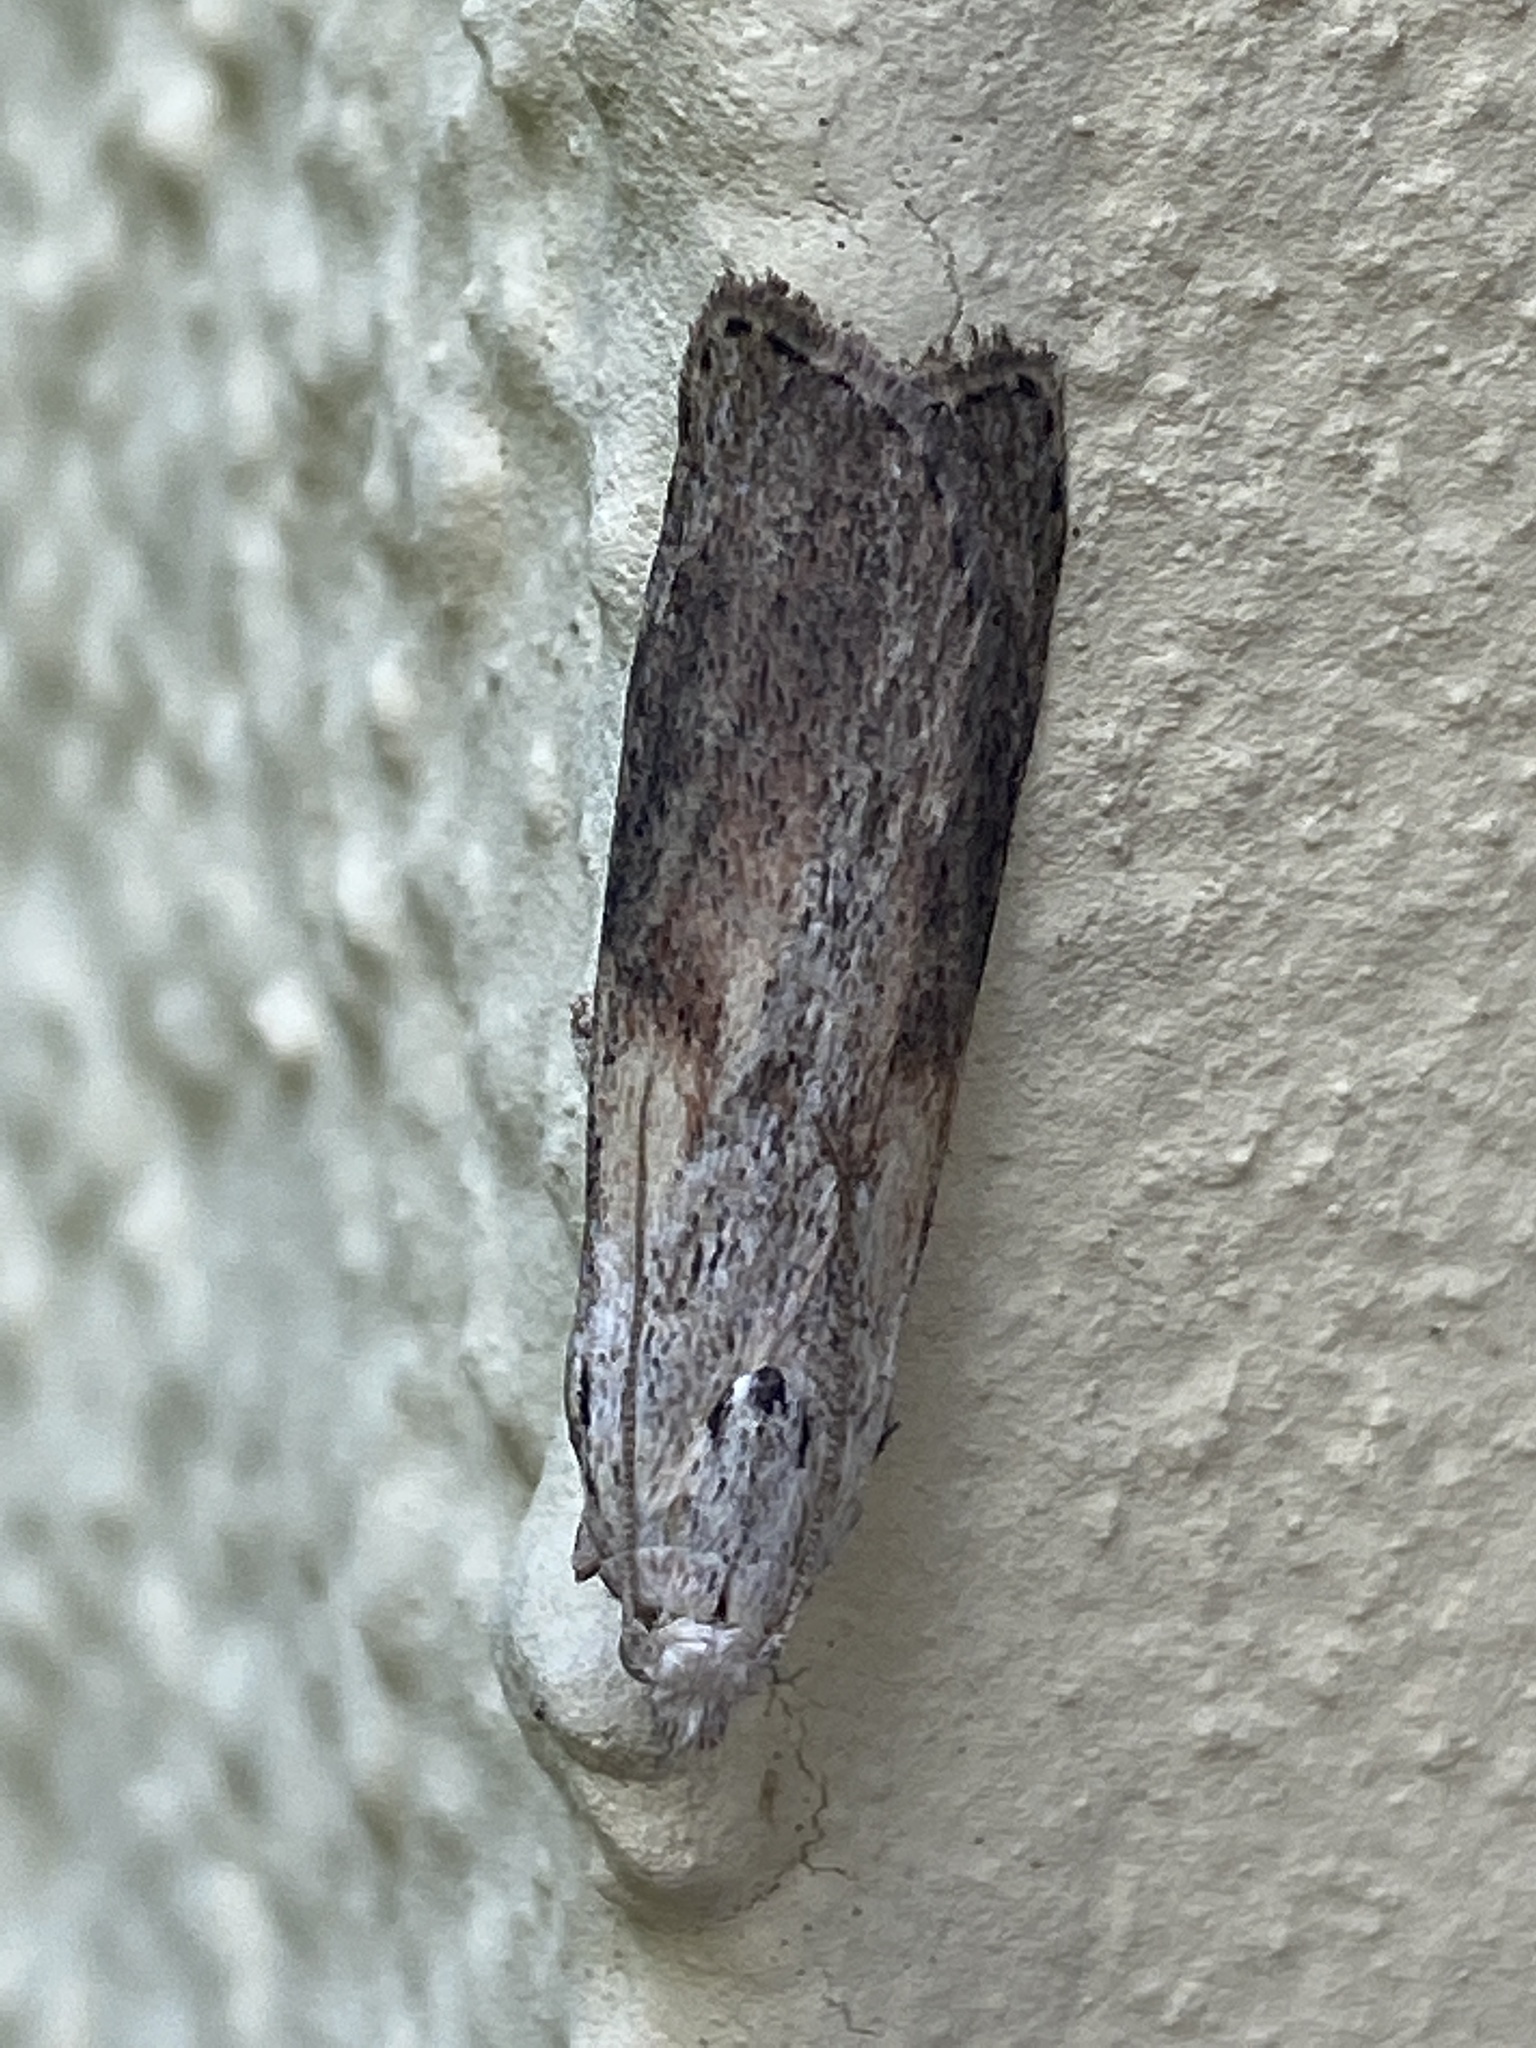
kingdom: Animalia
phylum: Arthropoda
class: Insecta
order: Lepidoptera
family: Pyralidae
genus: Aphomia
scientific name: Aphomia sociella
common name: Bee moth
